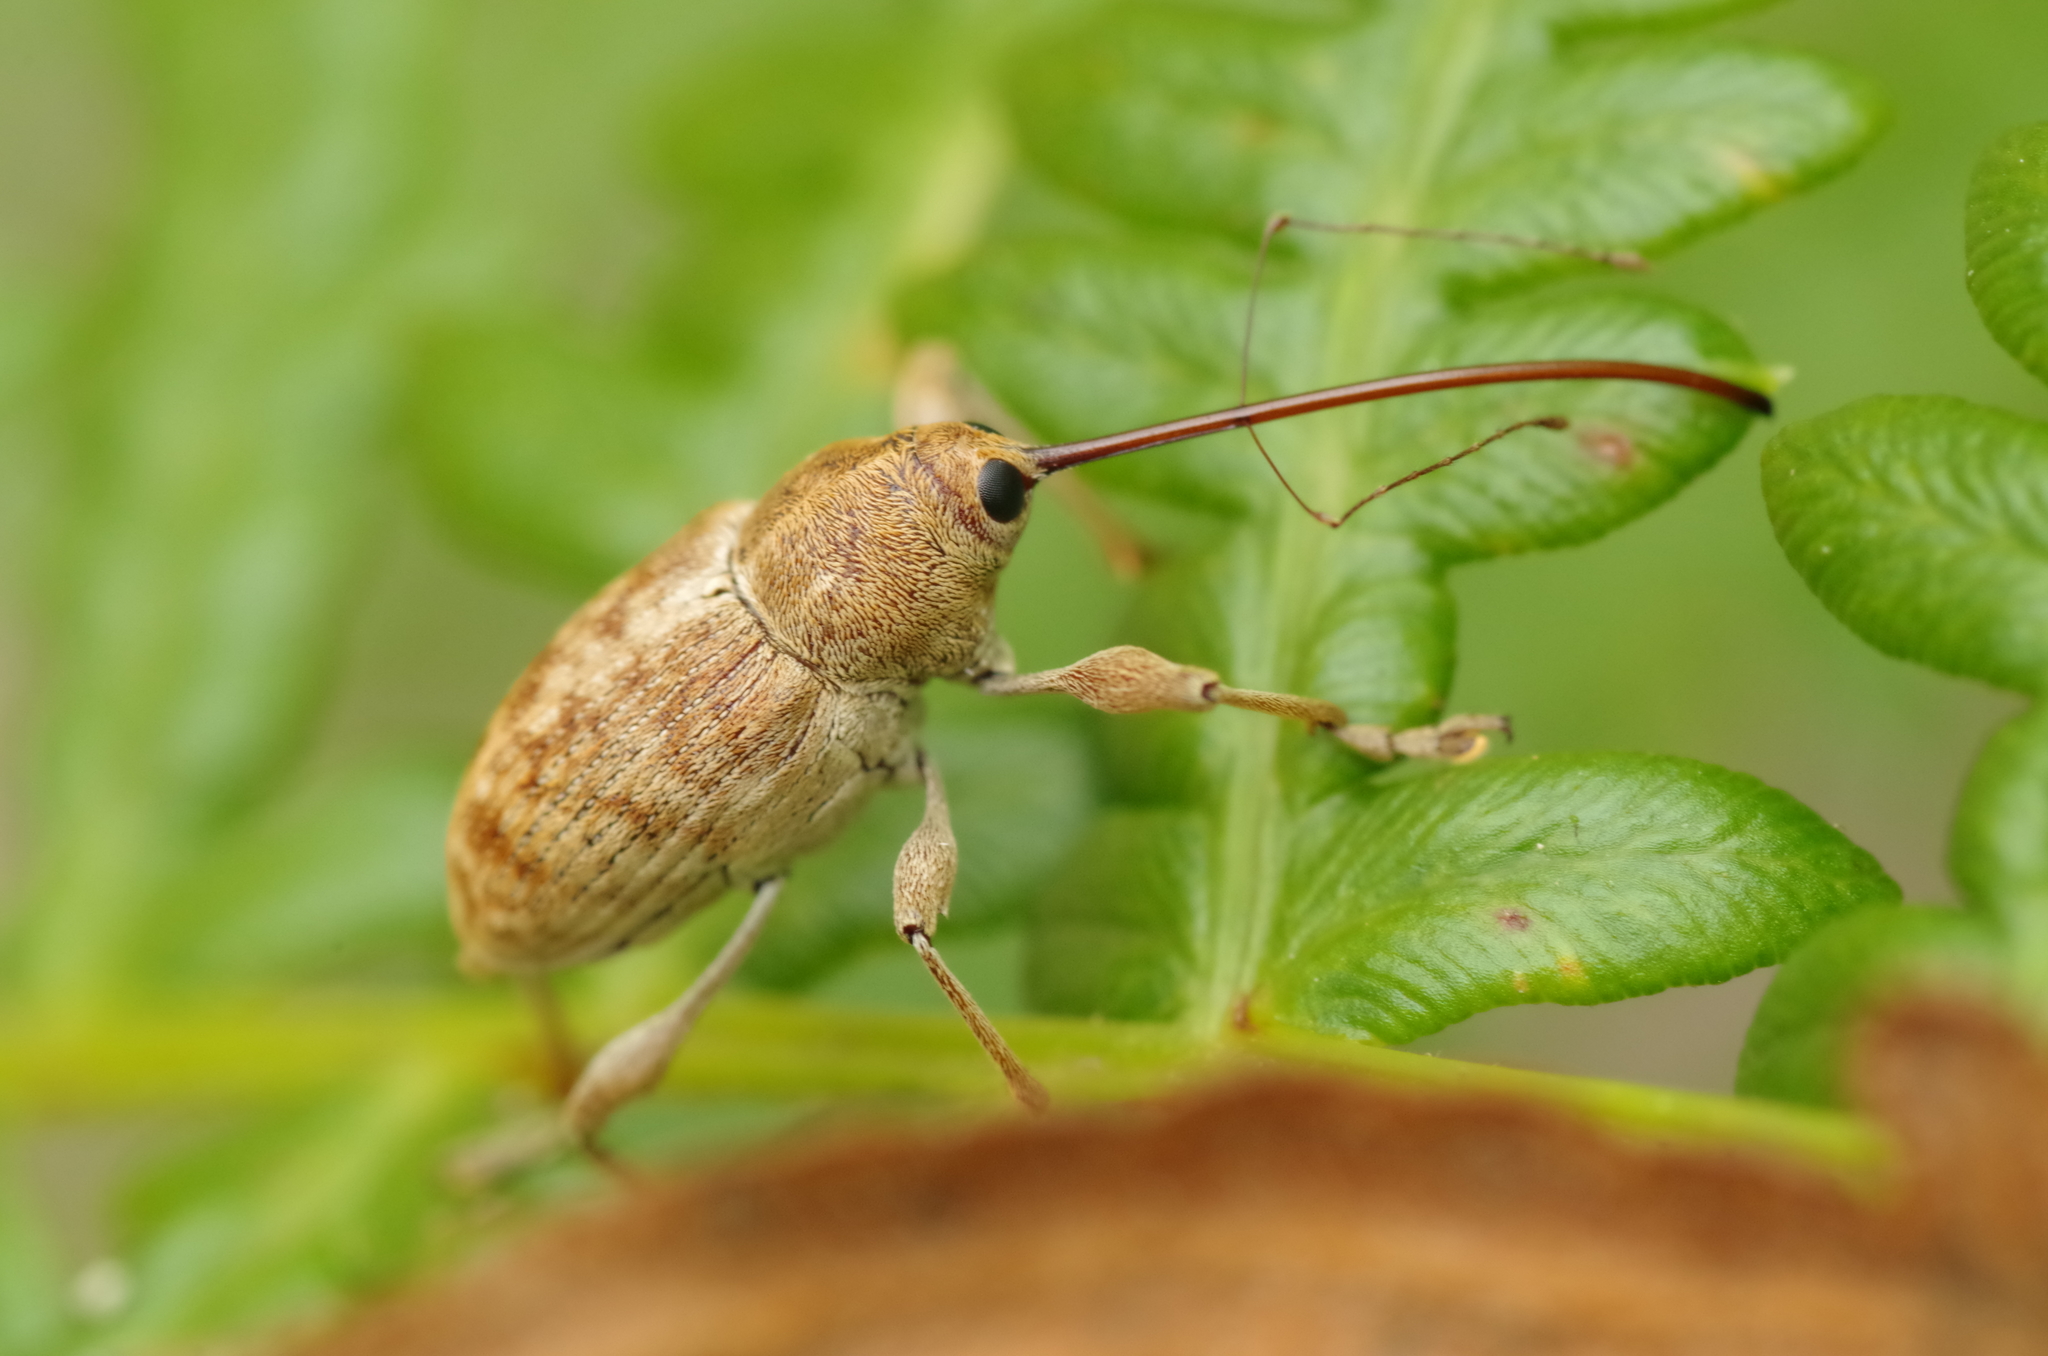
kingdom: Animalia
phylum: Arthropoda
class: Insecta
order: Coleoptera
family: Curculionidae
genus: Curculio
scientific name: Curculio elephas
